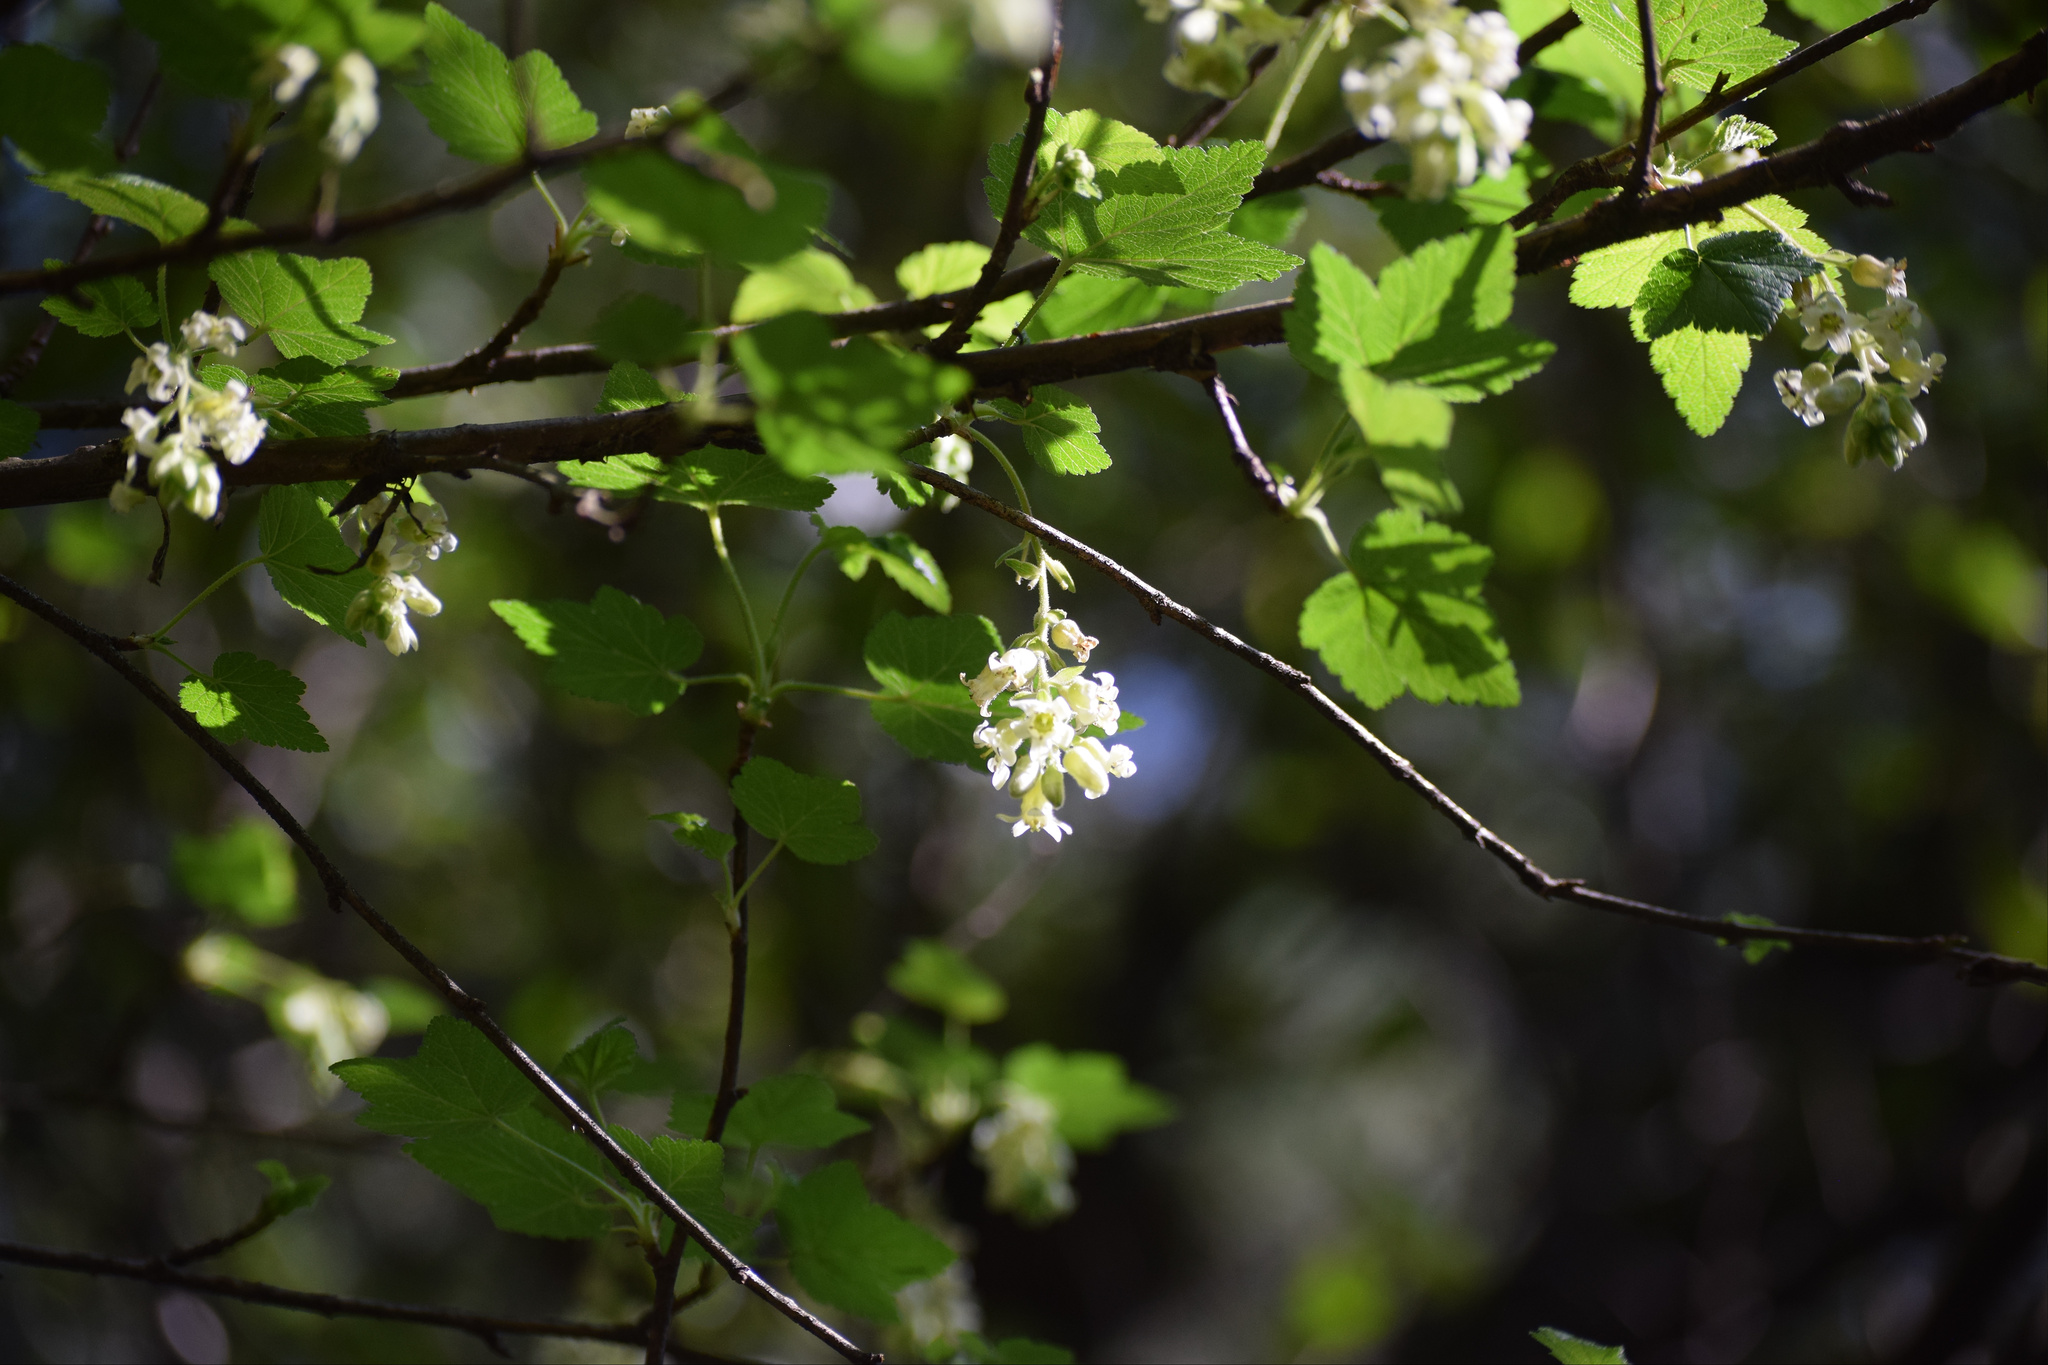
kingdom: Plantae
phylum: Tracheophyta
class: Magnoliopsida
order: Saxifragales
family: Grossulariaceae
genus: Ribes
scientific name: Ribes ciliatum
